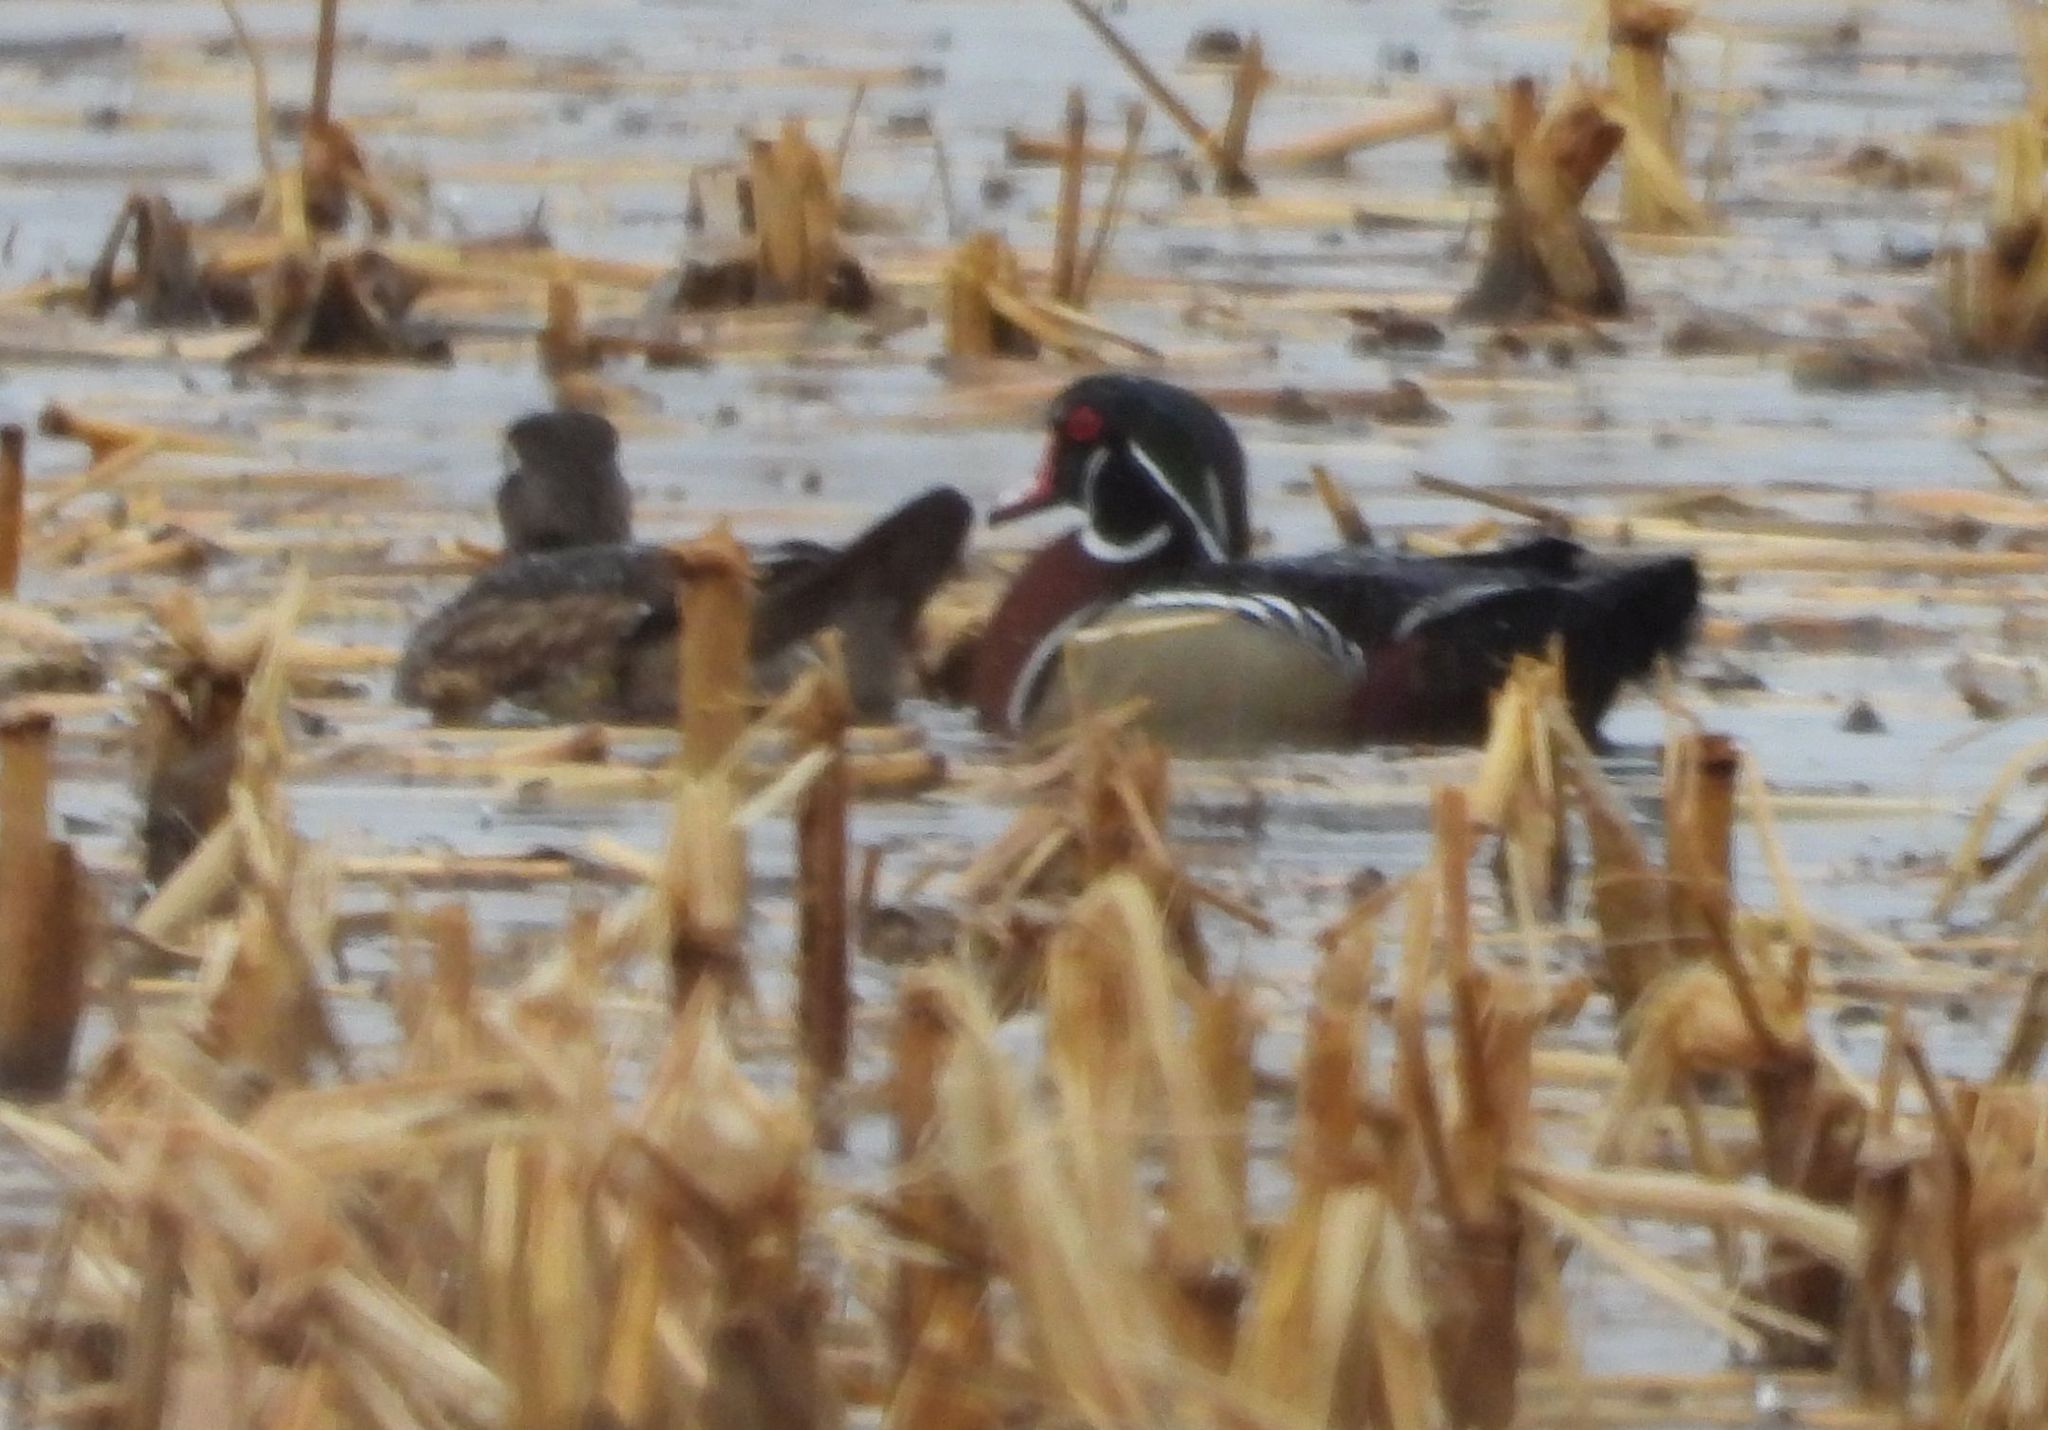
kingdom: Animalia
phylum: Chordata
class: Aves
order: Anseriformes
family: Anatidae
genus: Aix
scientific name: Aix sponsa
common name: Wood duck
